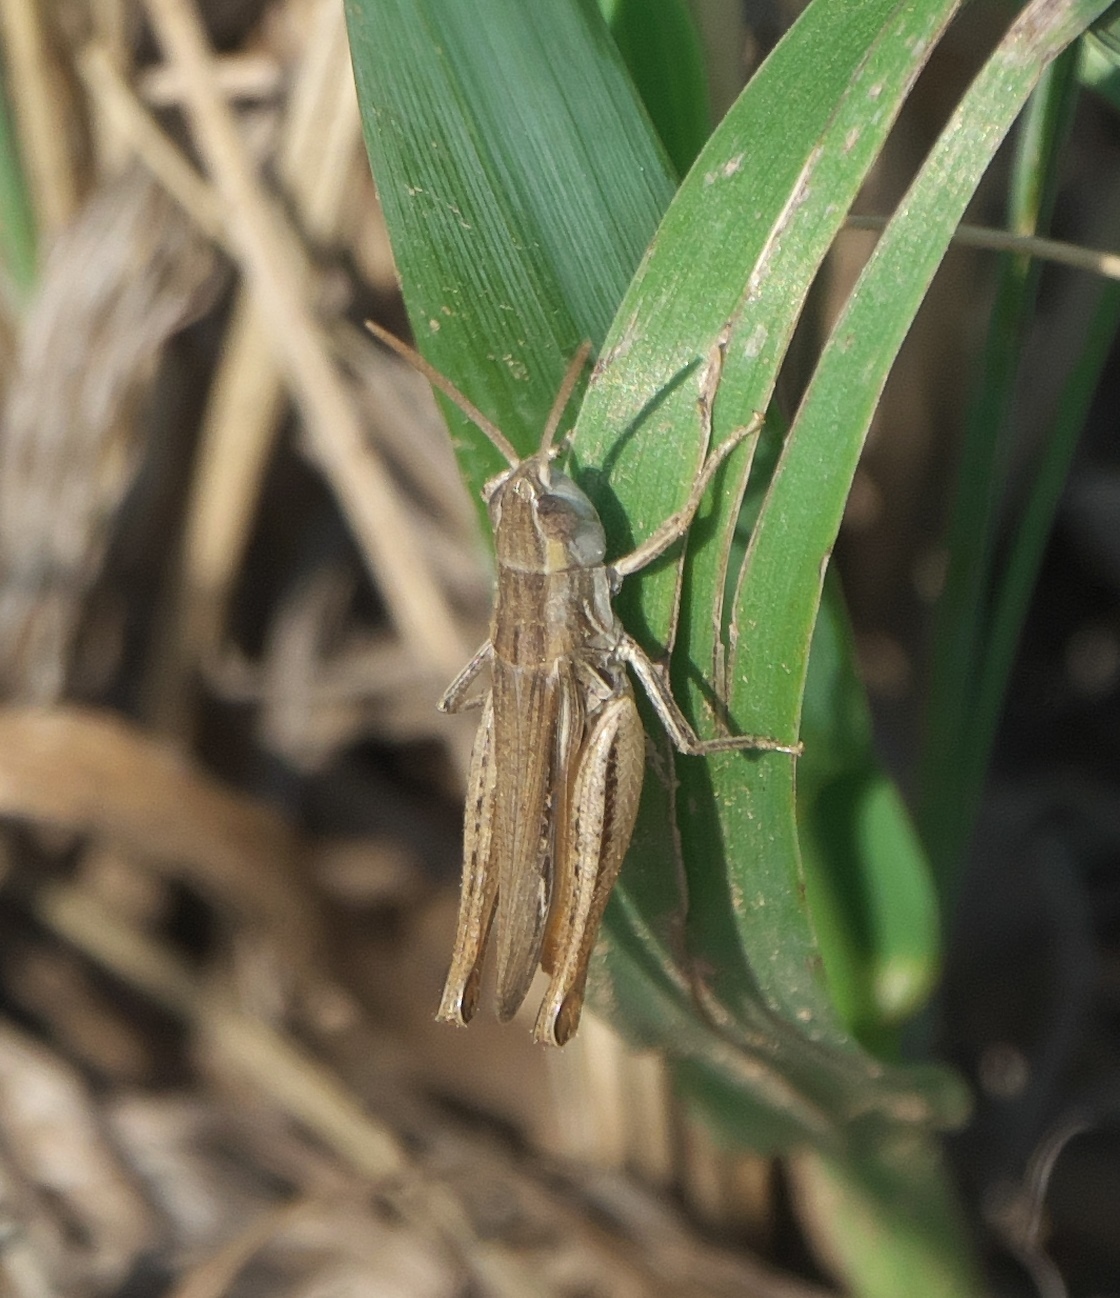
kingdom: Animalia
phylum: Arthropoda
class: Insecta
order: Orthoptera
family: Acrididae
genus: Eritettix
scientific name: Eritettix simplex
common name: Velvet-striped grasshopper
